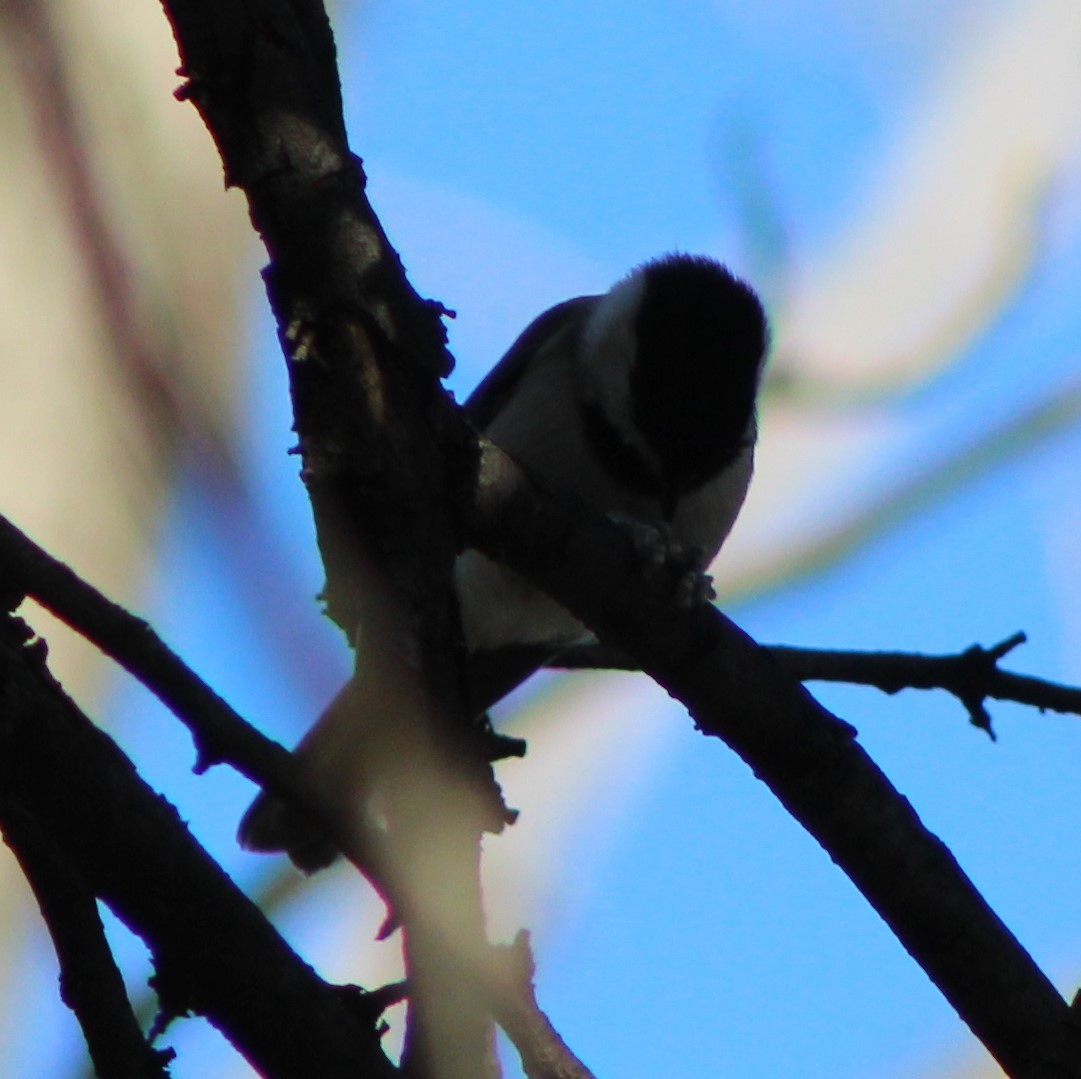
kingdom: Animalia
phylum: Chordata
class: Aves
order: Passeriformes
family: Paridae
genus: Poecile
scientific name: Poecile carolinensis
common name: Carolina chickadee
